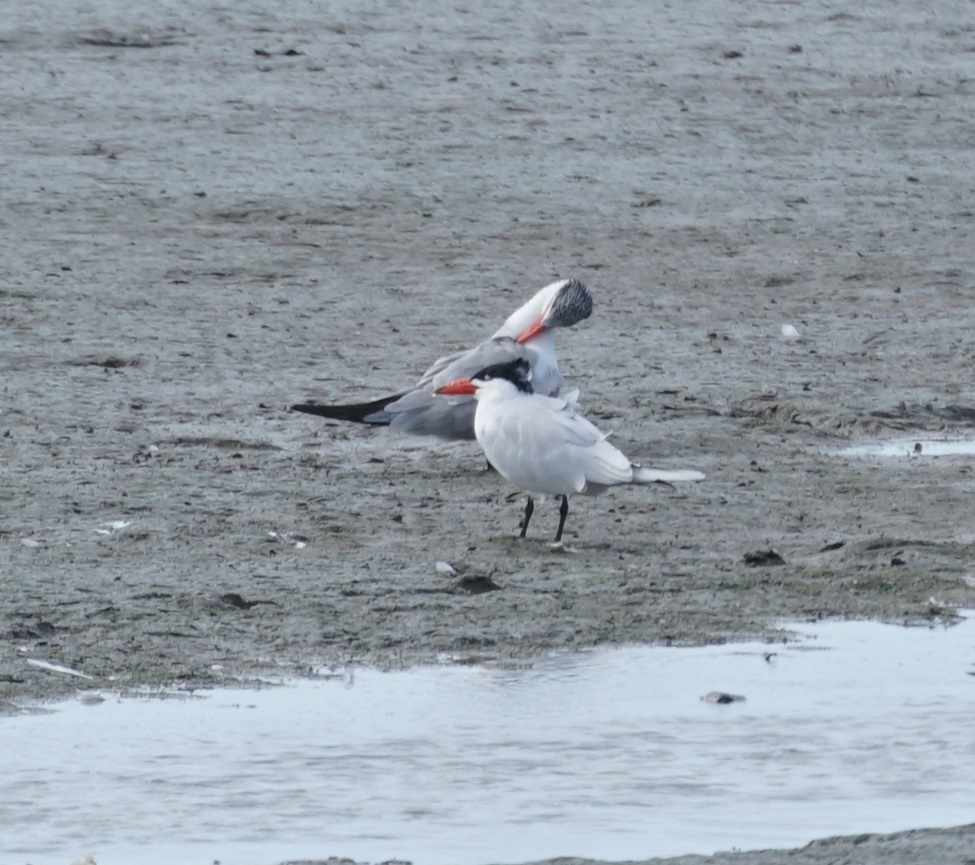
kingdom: Animalia
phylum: Chordata
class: Aves
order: Charadriiformes
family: Laridae
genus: Hydroprogne
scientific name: Hydroprogne caspia
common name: Caspian tern
